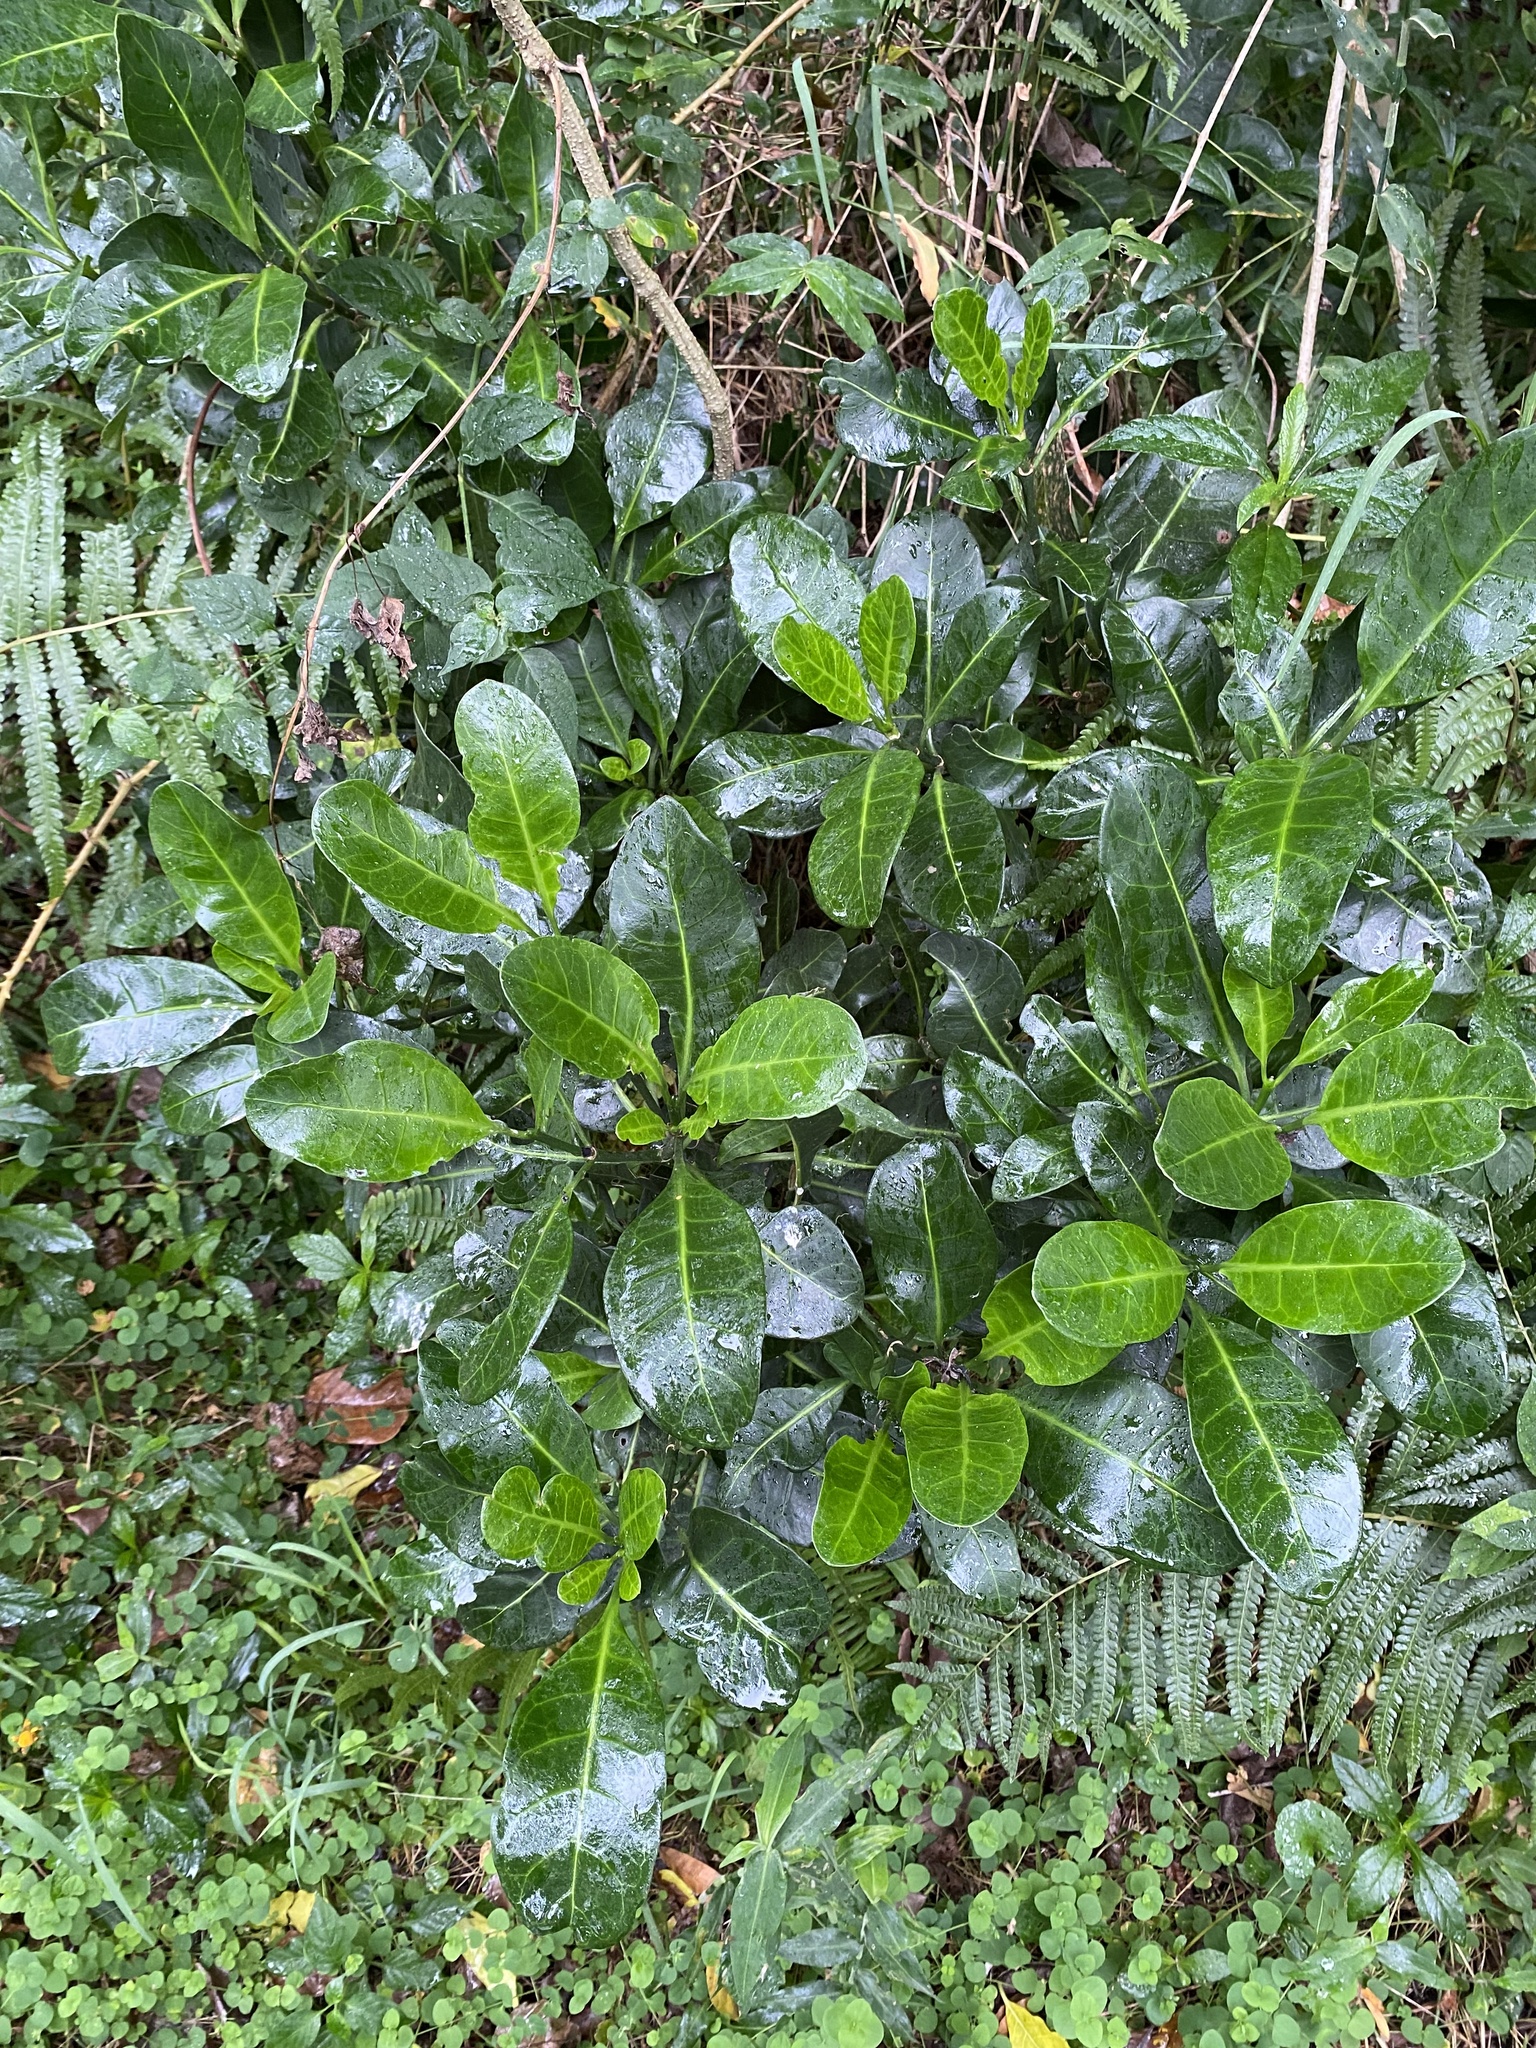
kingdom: Plantae
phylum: Tracheophyta
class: Magnoliopsida
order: Gentianales
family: Rubiaceae
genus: Psychotria
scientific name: Psychotria capensis
